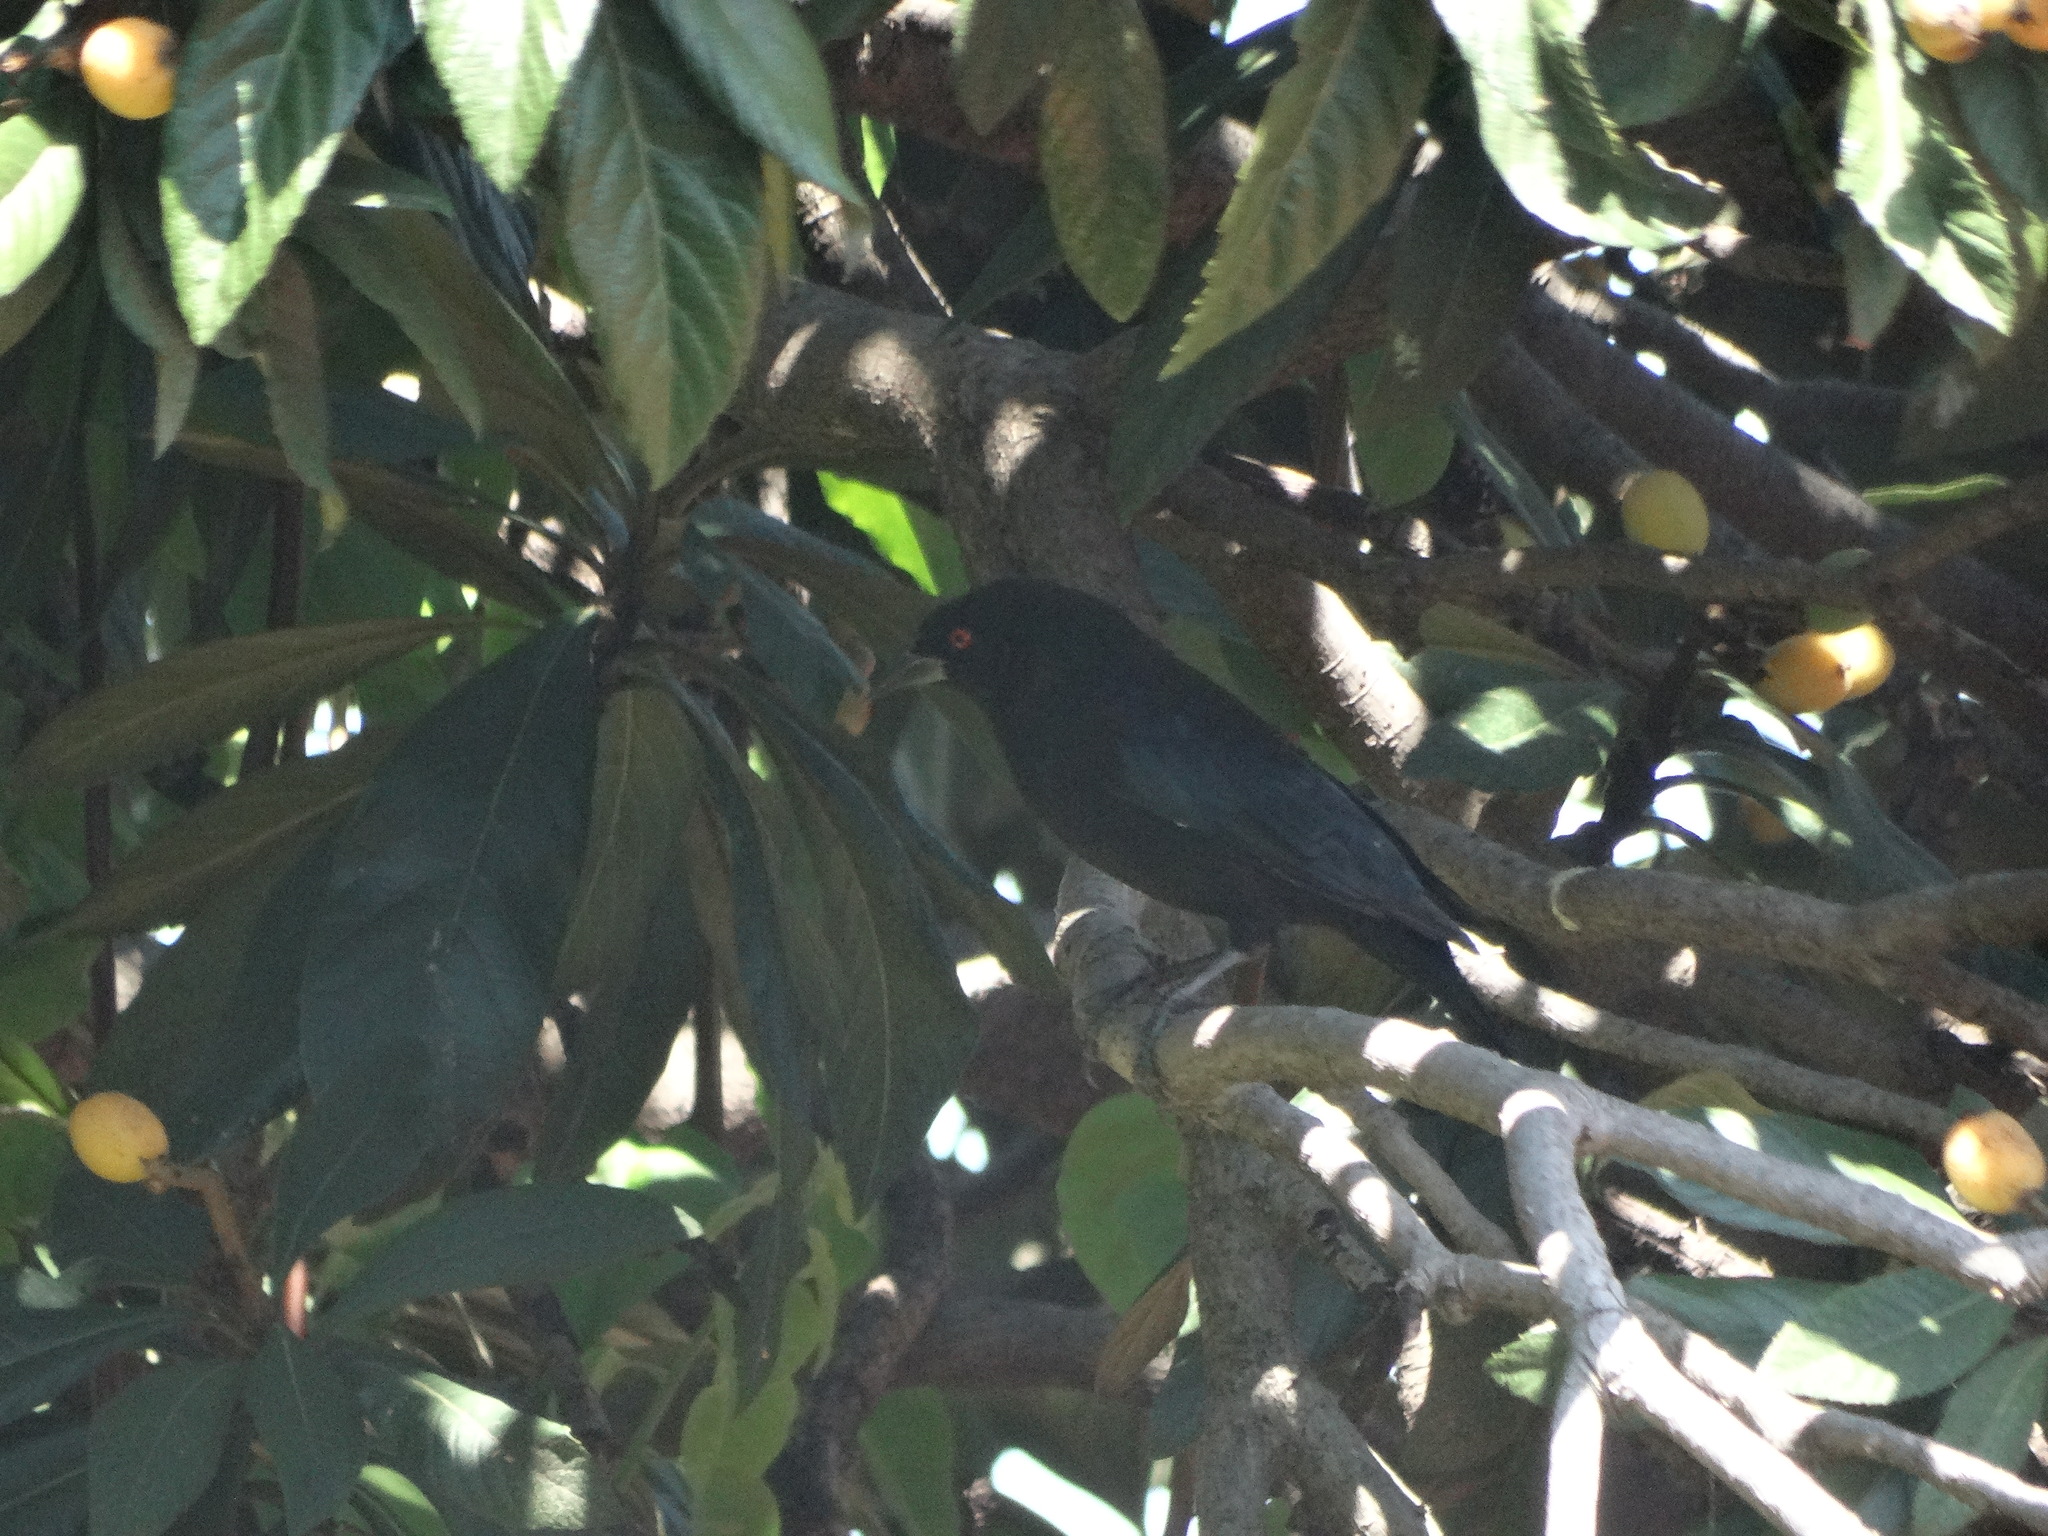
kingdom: Animalia
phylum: Chordata
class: Aves
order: Passeriformes
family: Icteridae
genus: Molothrus
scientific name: Molothrus aeneus
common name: Bronzed cowbird
